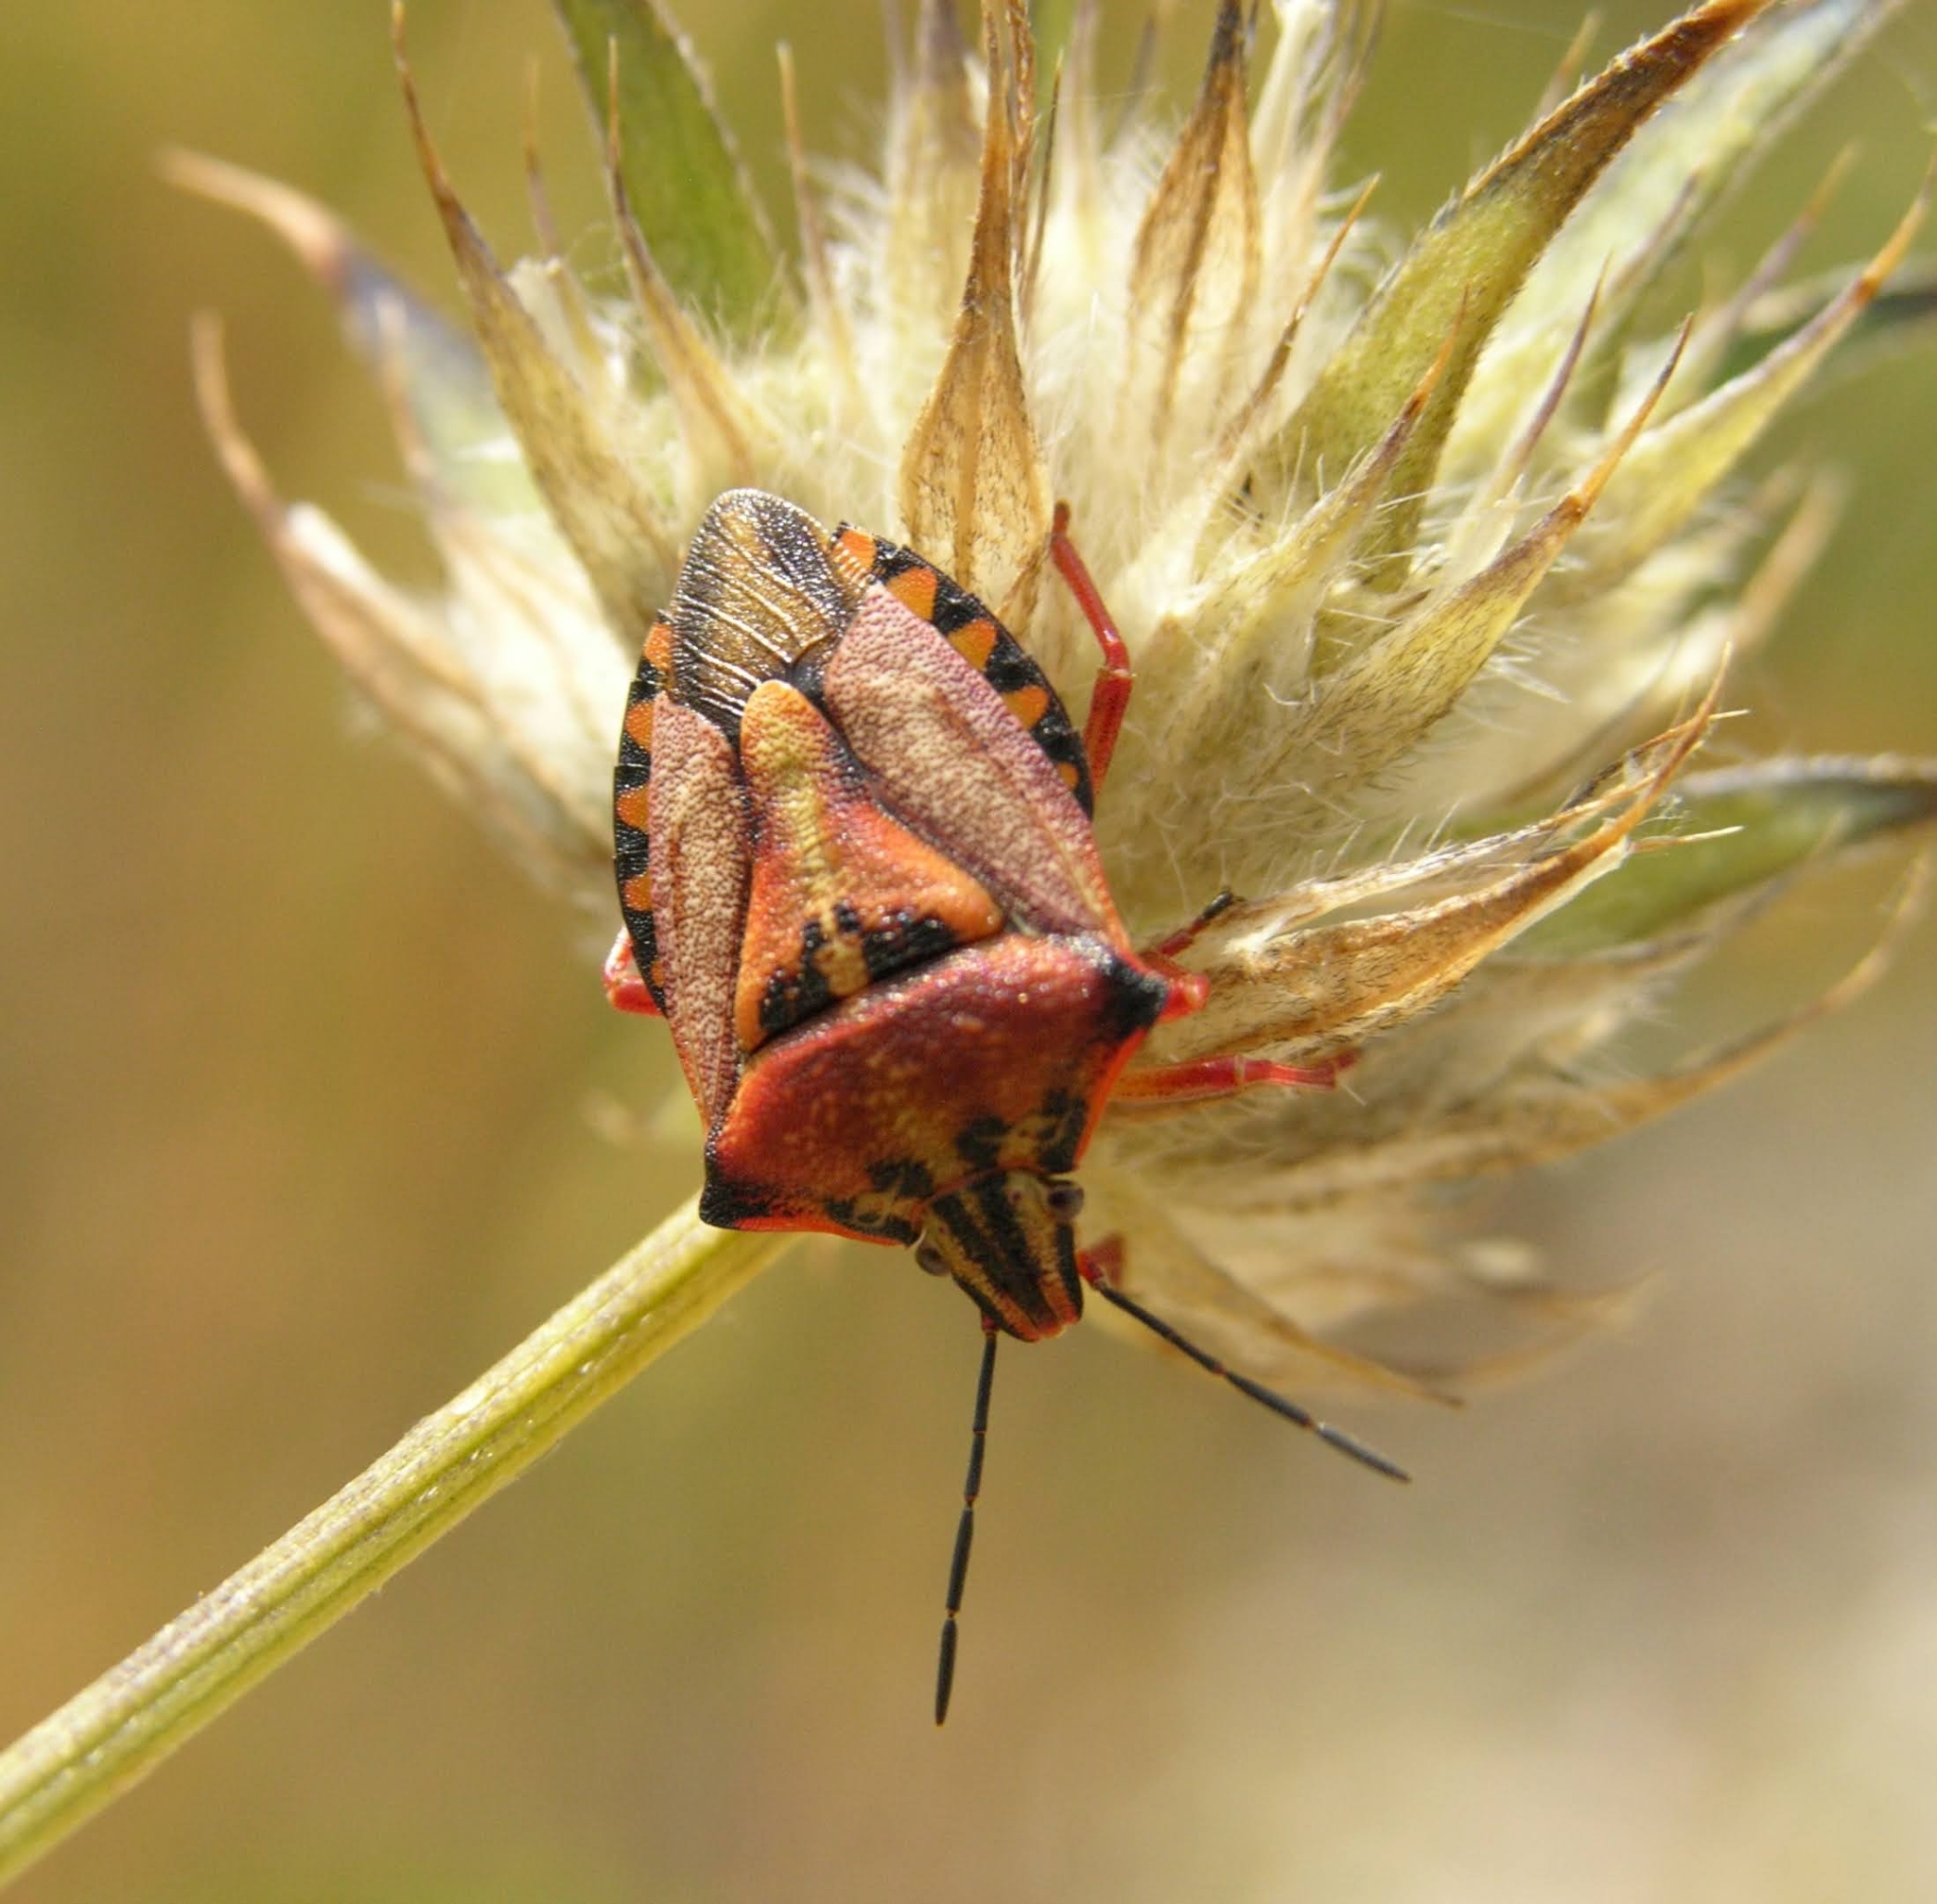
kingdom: Animalia
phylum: Arthropoda
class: Insecta
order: Hemiptera
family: Pentatomidae
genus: Carpocoris
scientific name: Carpocoris mediterraneus
